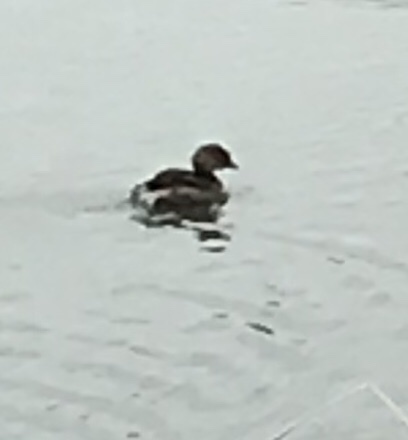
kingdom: Animalia
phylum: Chordata
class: Aves
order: Podicipediformes
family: Podicipedidae
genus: Tachybaptus
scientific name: Tachybaptus dominicus
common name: Least grebe
